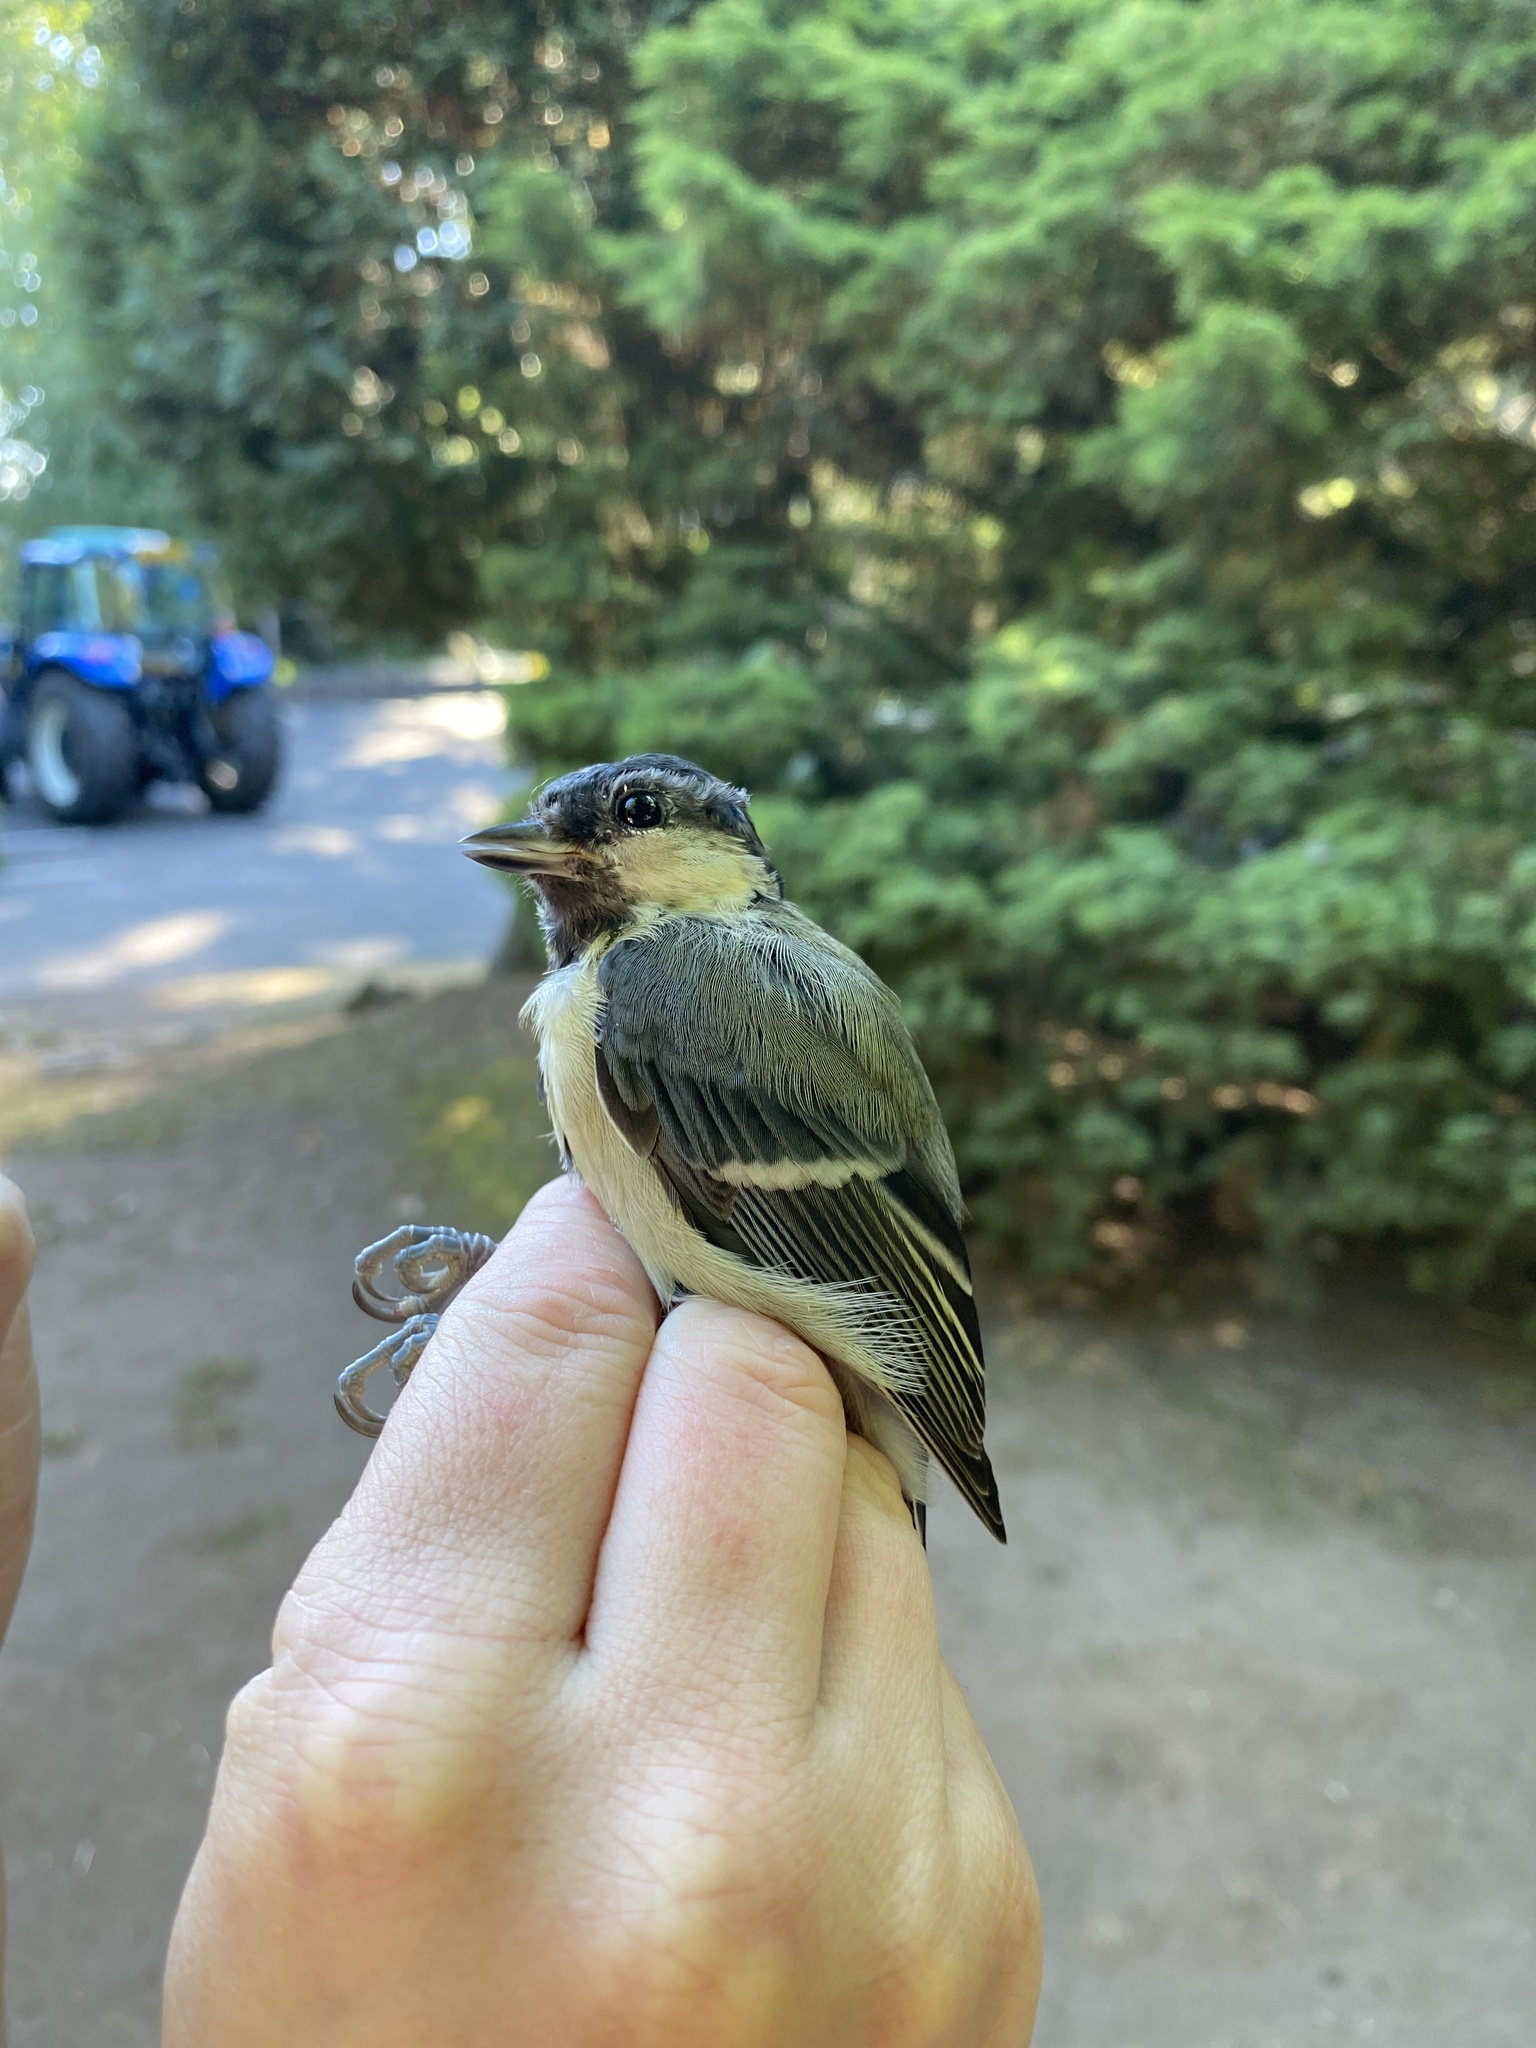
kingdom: Animalia
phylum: Chordata
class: Aves
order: Passeriformes
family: Paridae
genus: Parus
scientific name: Parus major
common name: Great tit
